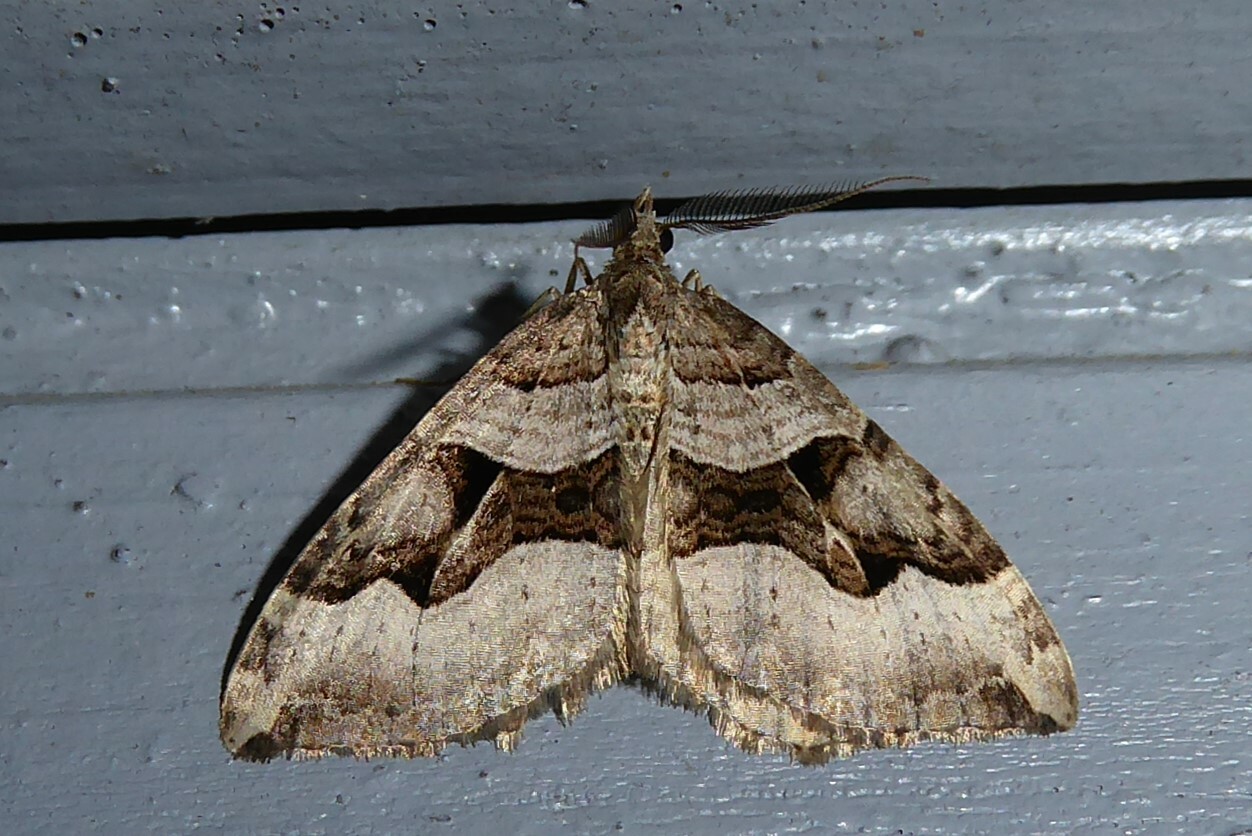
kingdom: Animalia
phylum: Arthropoda
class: Insecta
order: Lepidoptera
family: Geometridae
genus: Xanthorhoe
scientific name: Xanthorhoe semifissata
